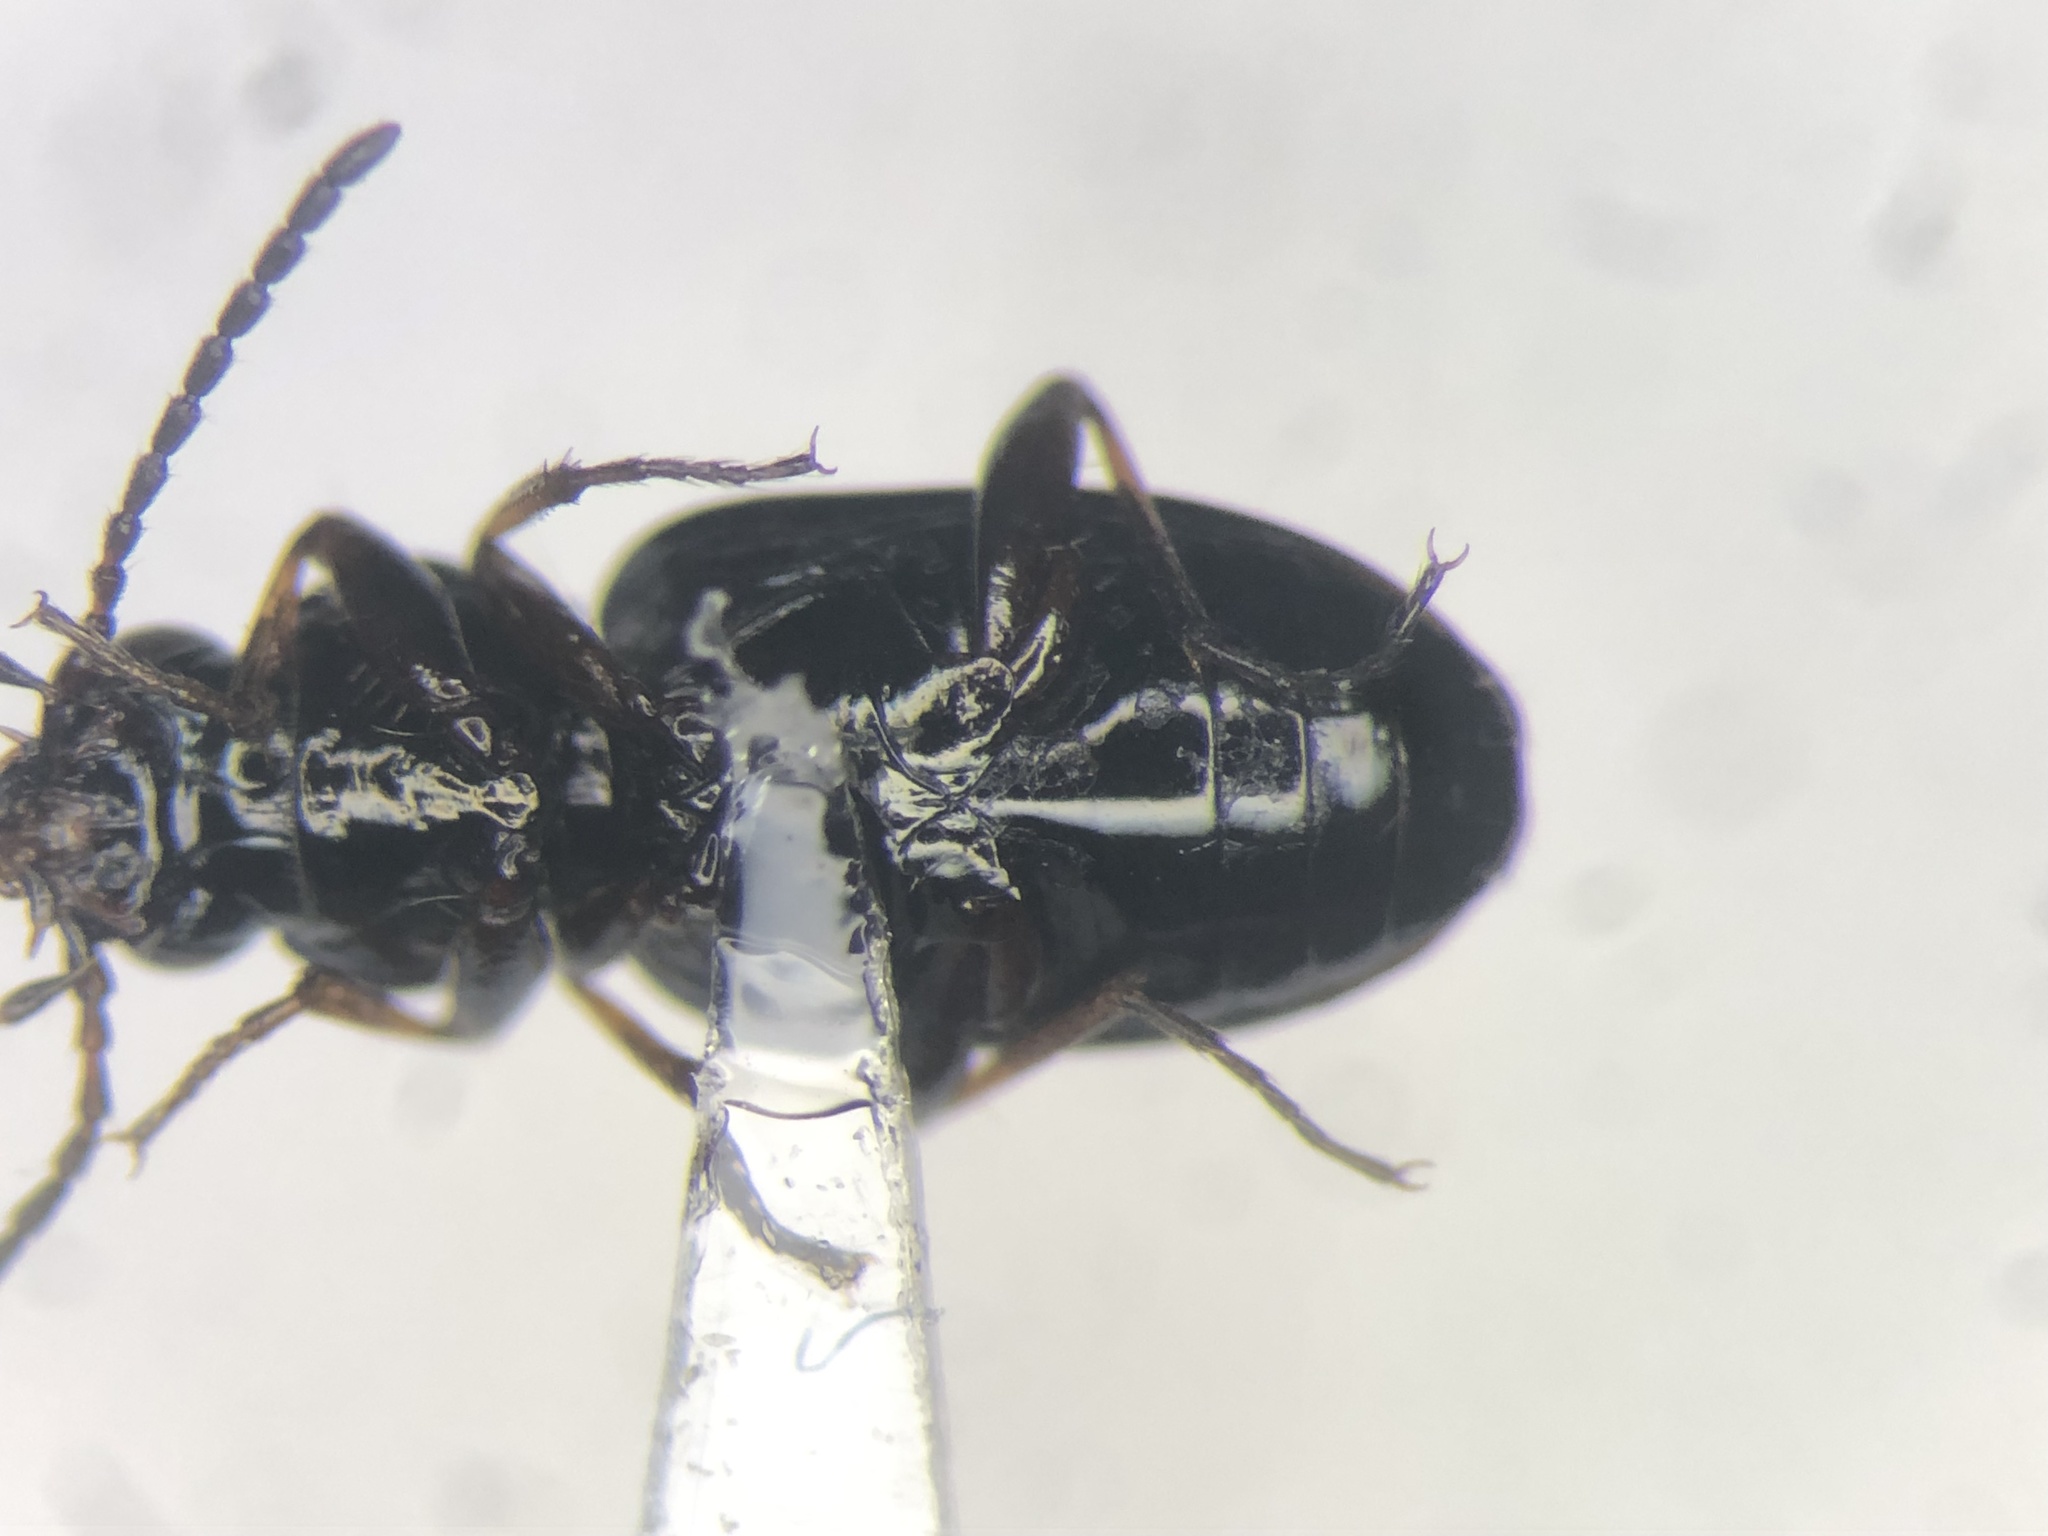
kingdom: Animalia
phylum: Arthropoda
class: Insecta
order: Coleoptera
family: Carabidae
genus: Bembidion
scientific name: Bembidion properans
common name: Hastings riverbank ground beetle
